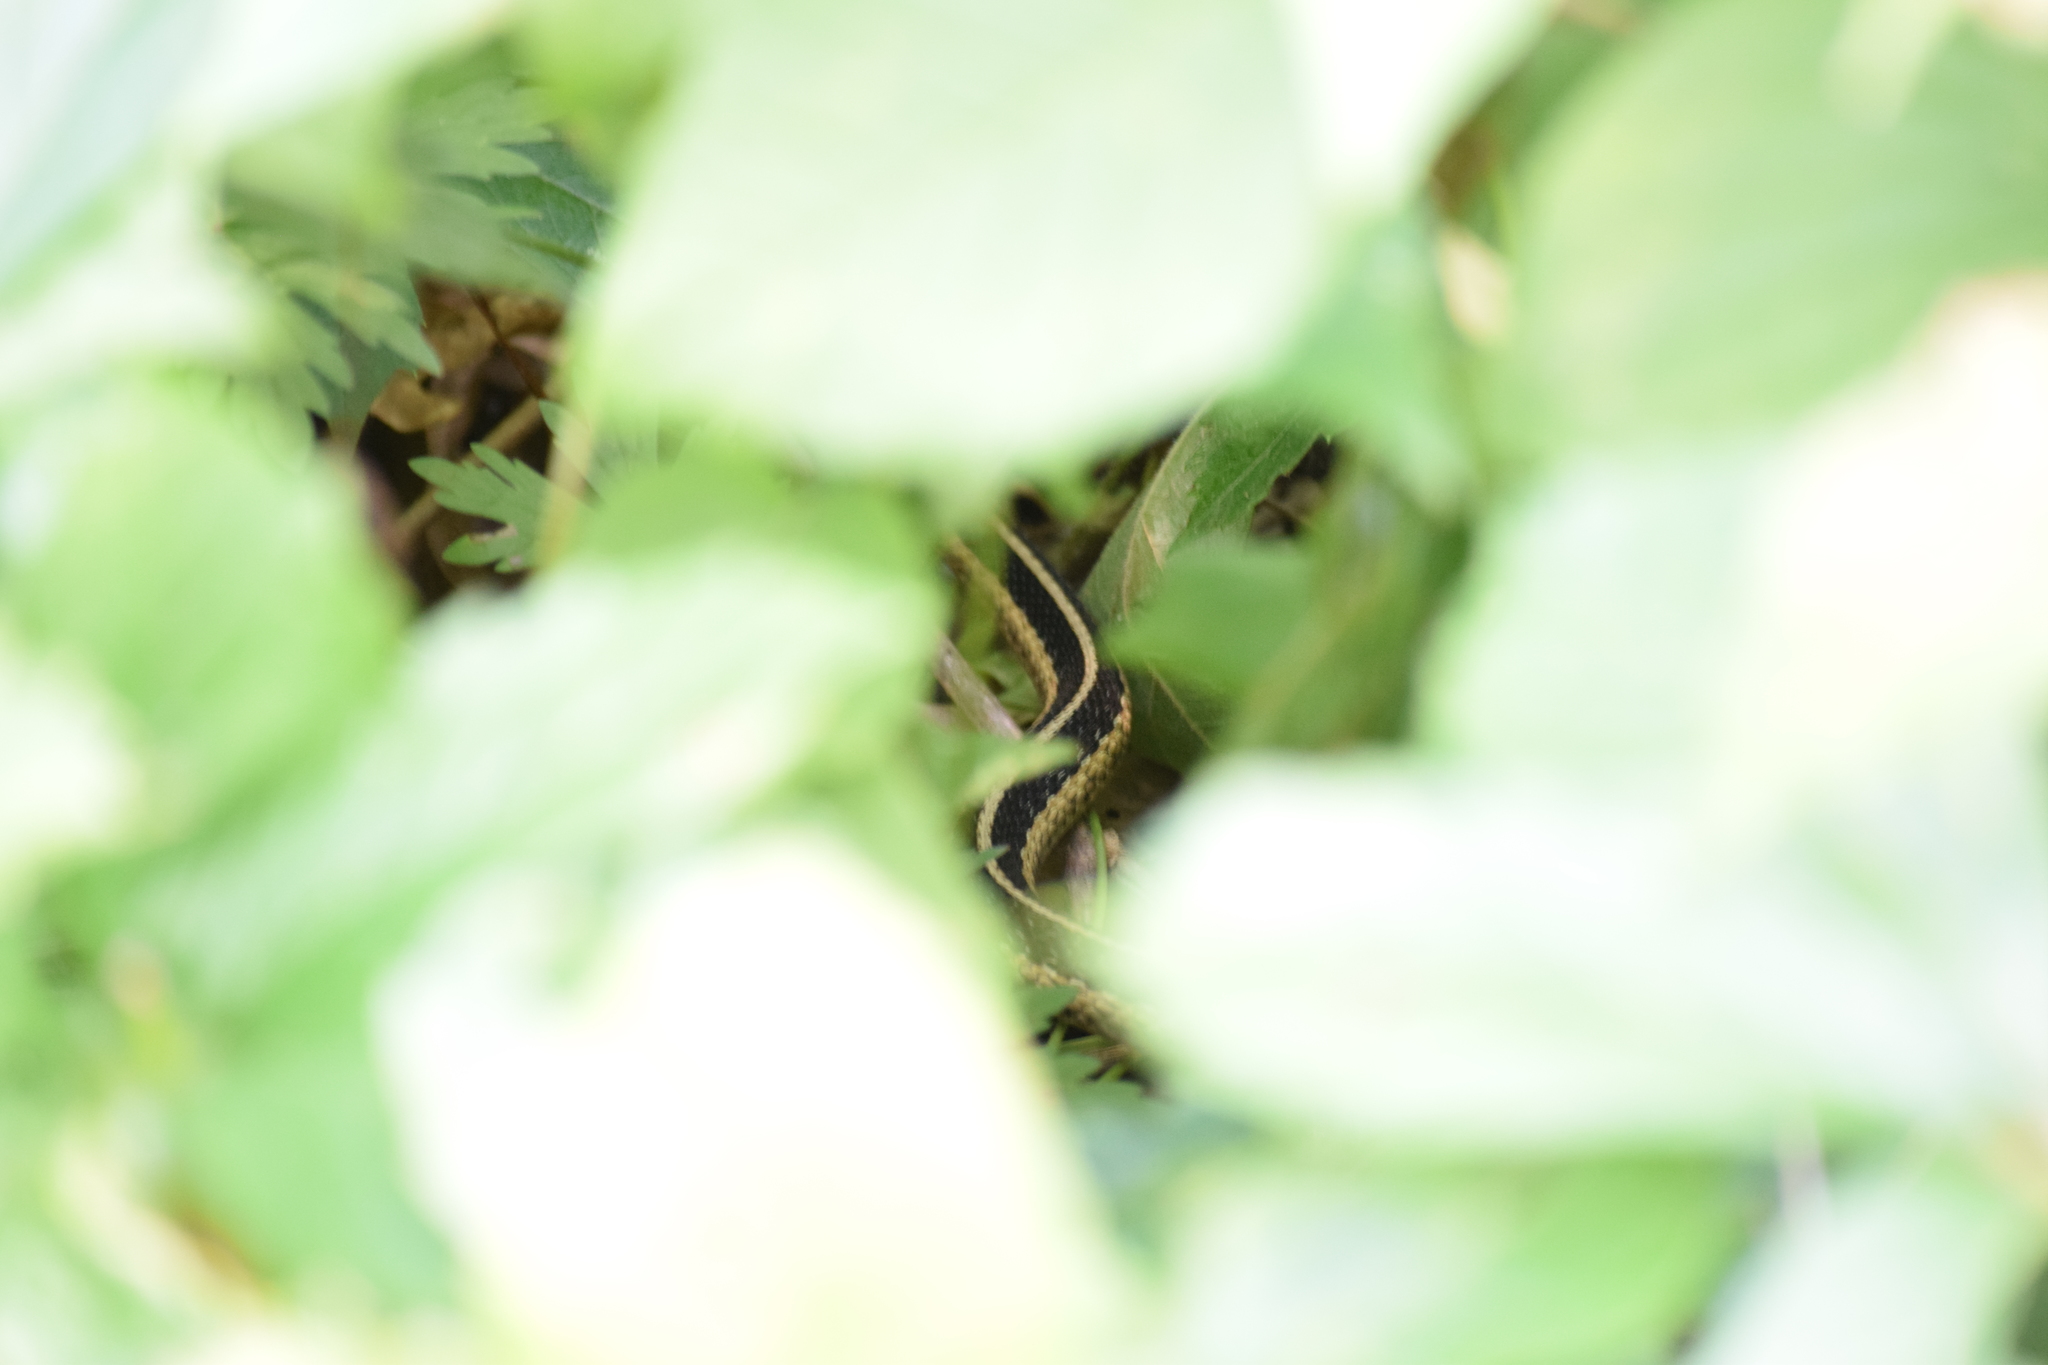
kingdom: Animalia
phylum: Chordata
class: Squamata
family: Colubridae
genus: Thamnophis
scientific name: Thamnophis sirtalis
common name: Common garter snake
